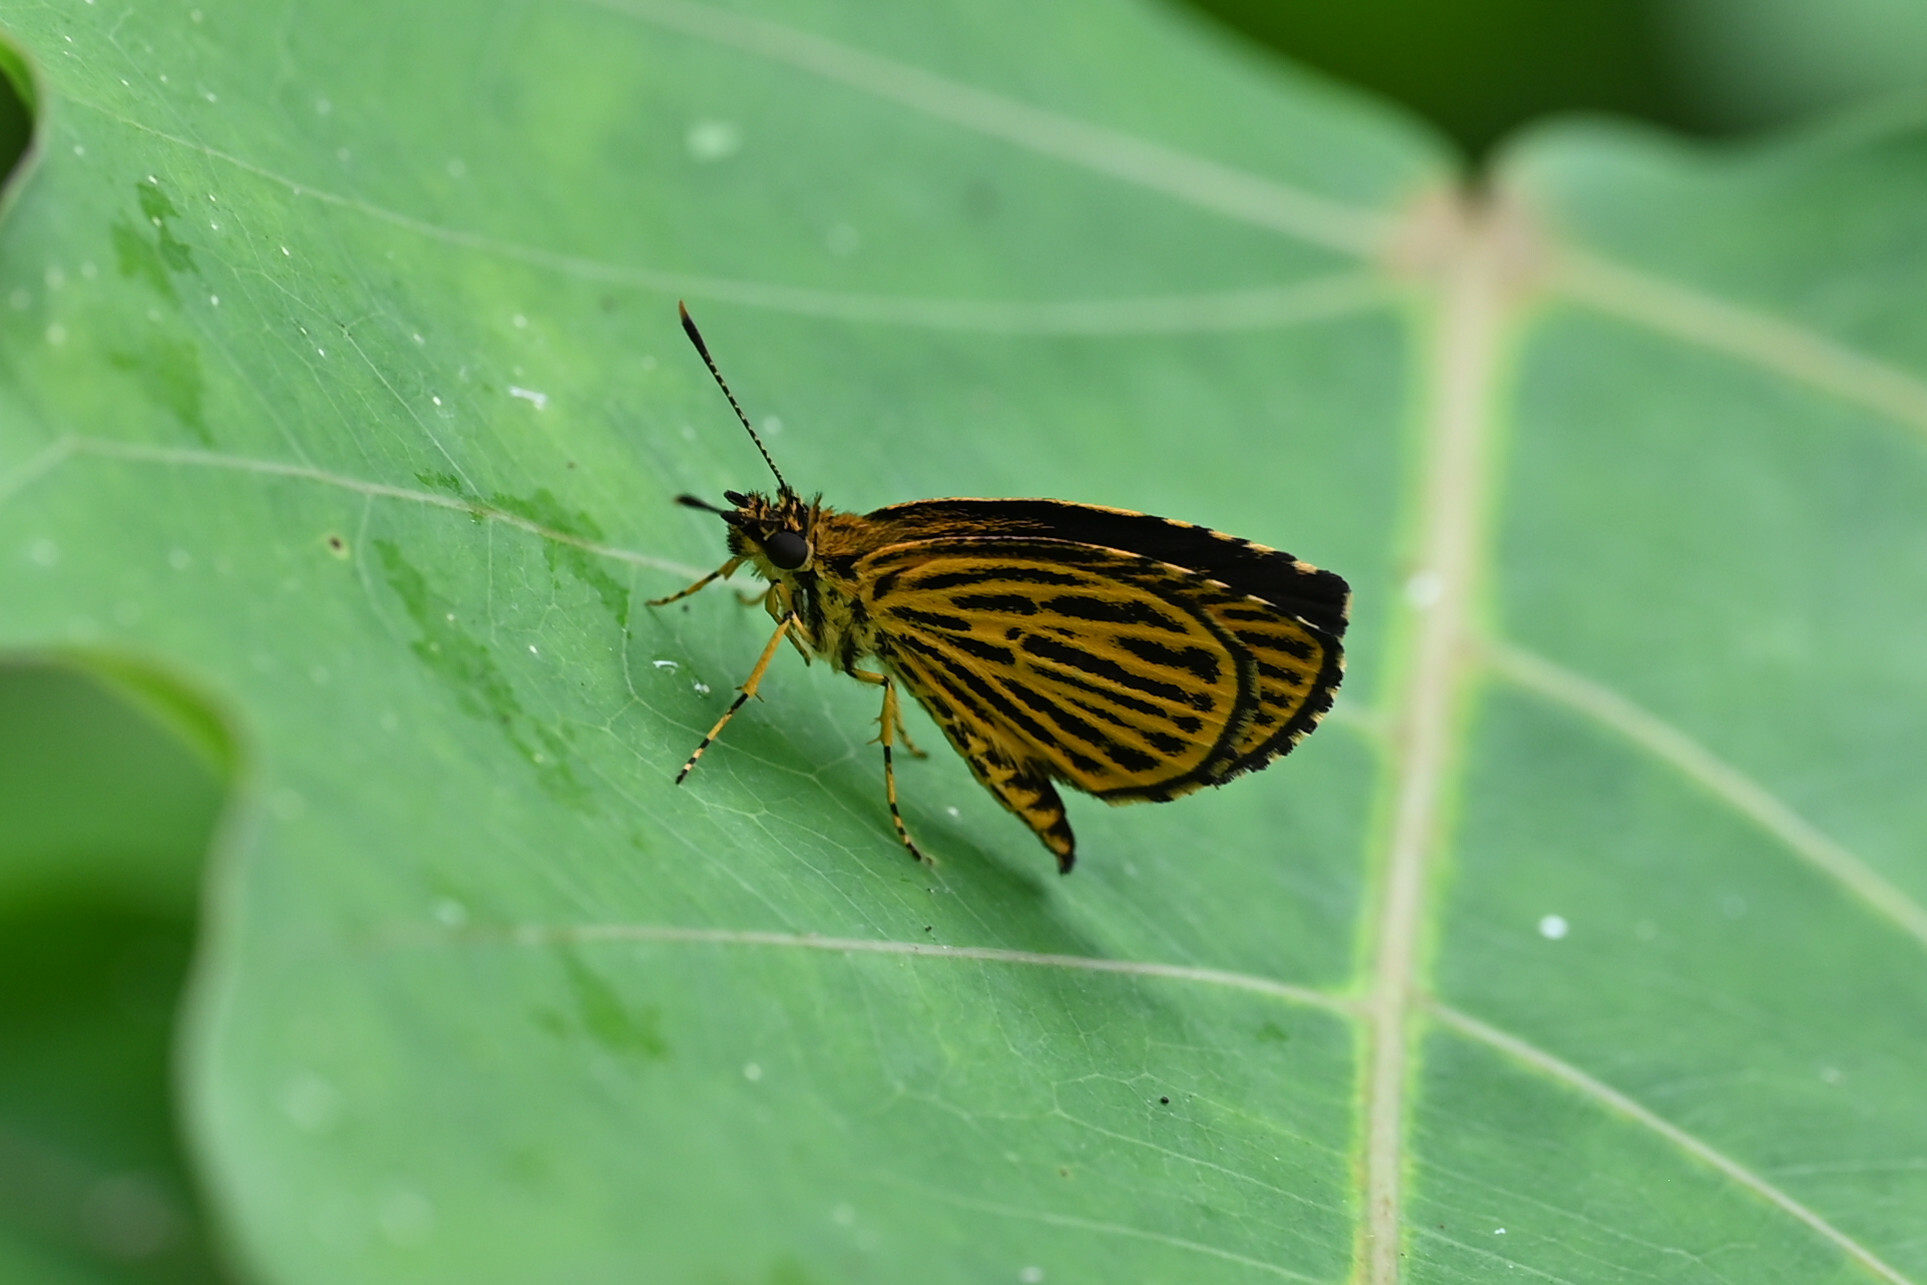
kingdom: Animalia
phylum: Arthropoda
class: Insecta
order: Lepidoptera
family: Hesperiidae
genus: Ampittia
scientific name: Ampittia subvittatus
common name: Tiger hopper
